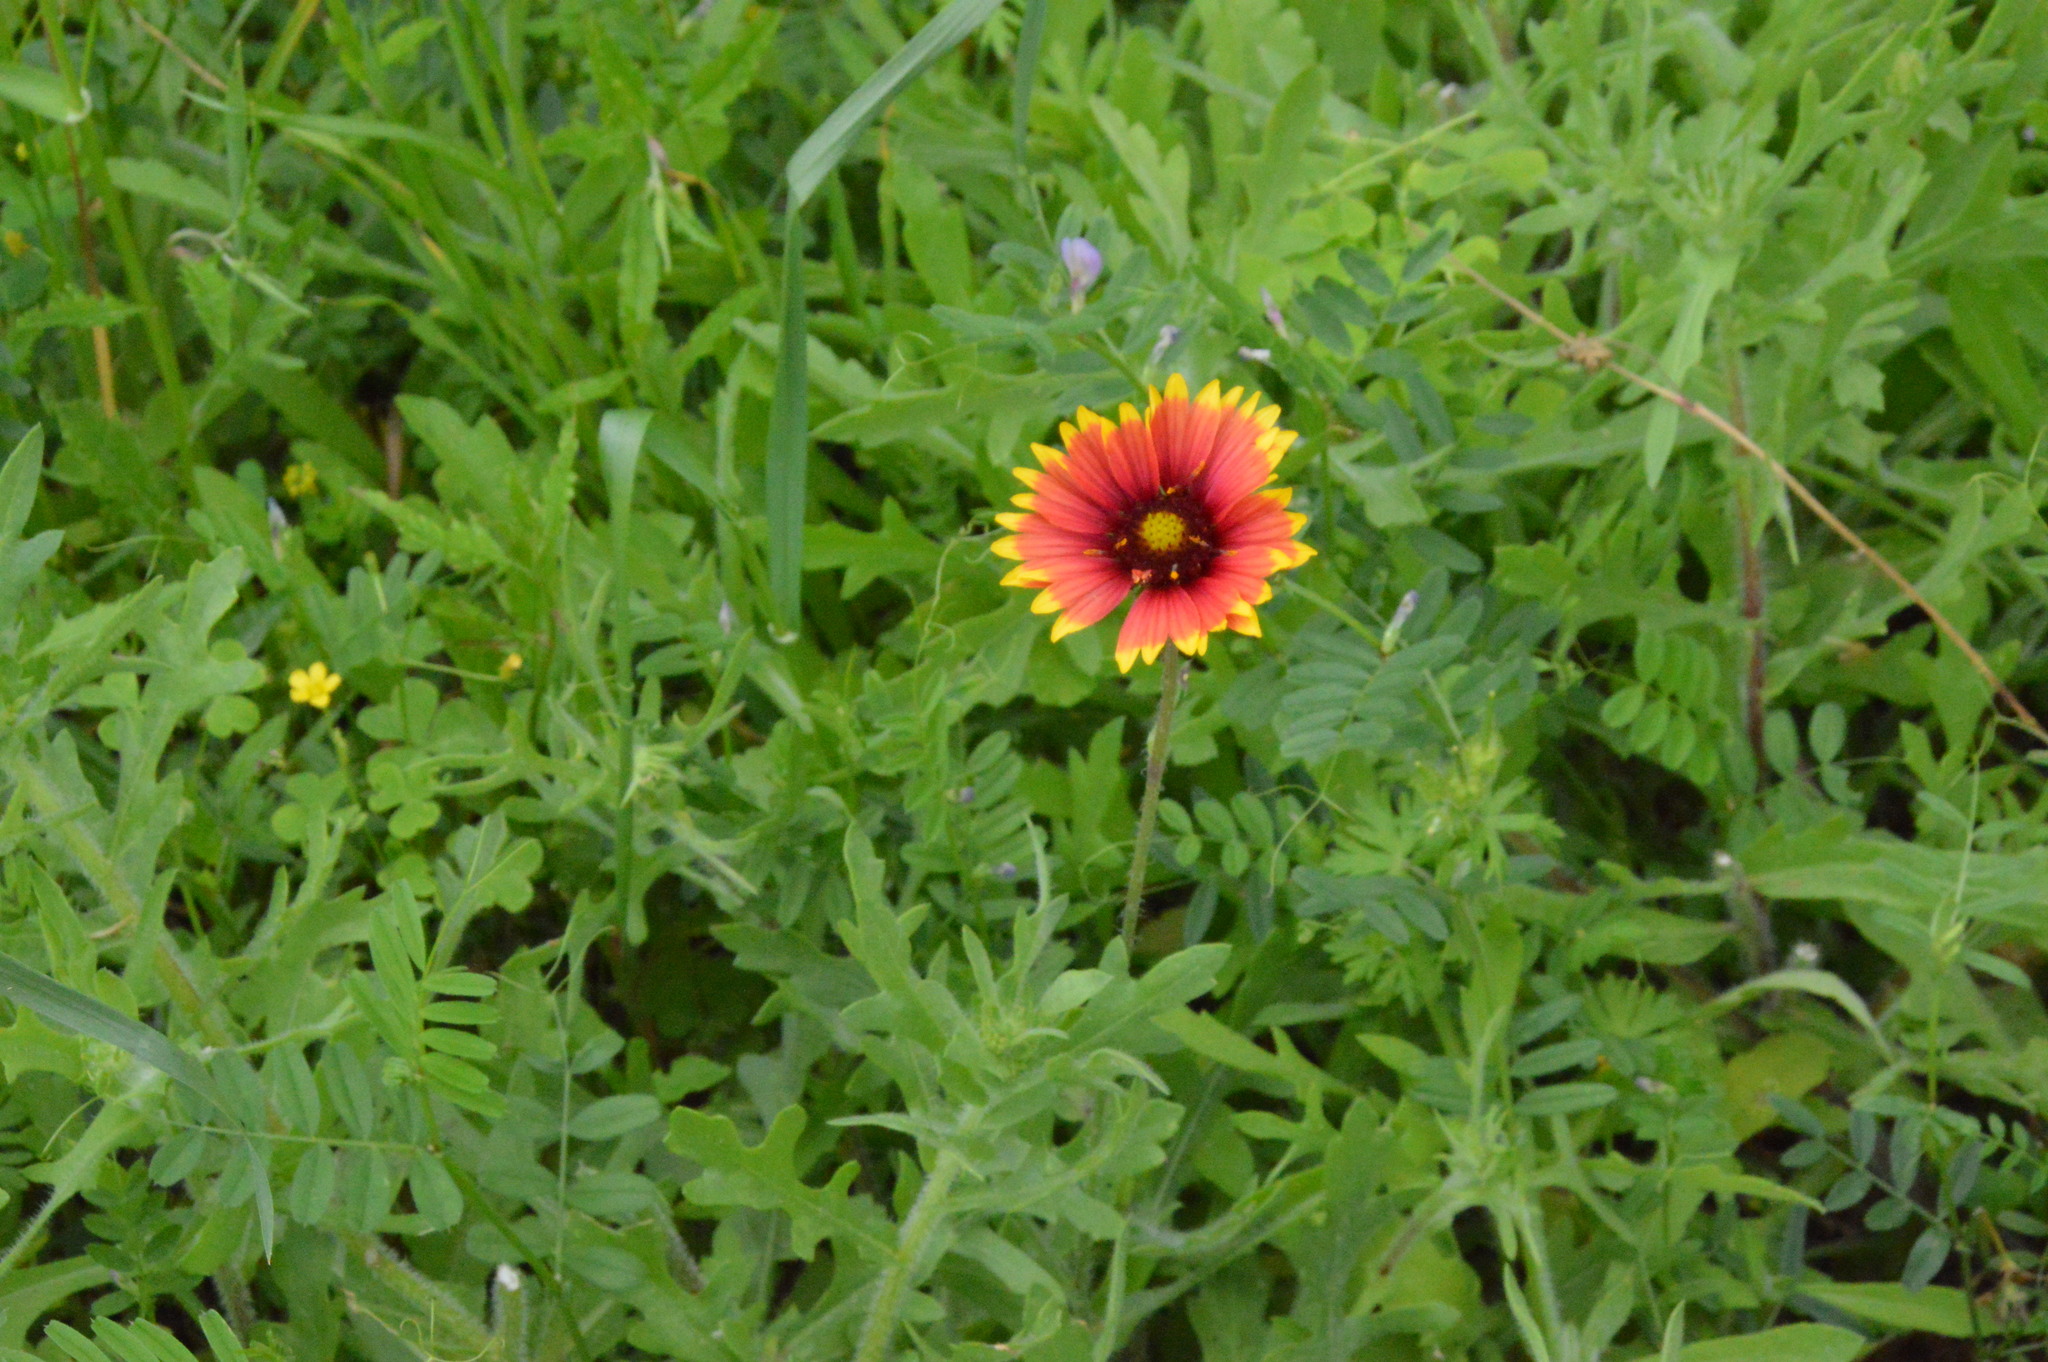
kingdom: Plantae
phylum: Tracheophyta
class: Magnoliopsida
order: Asterales
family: Asteraceae
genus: Gaillardia
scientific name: Gaillardia pulchella
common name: Firewheel
